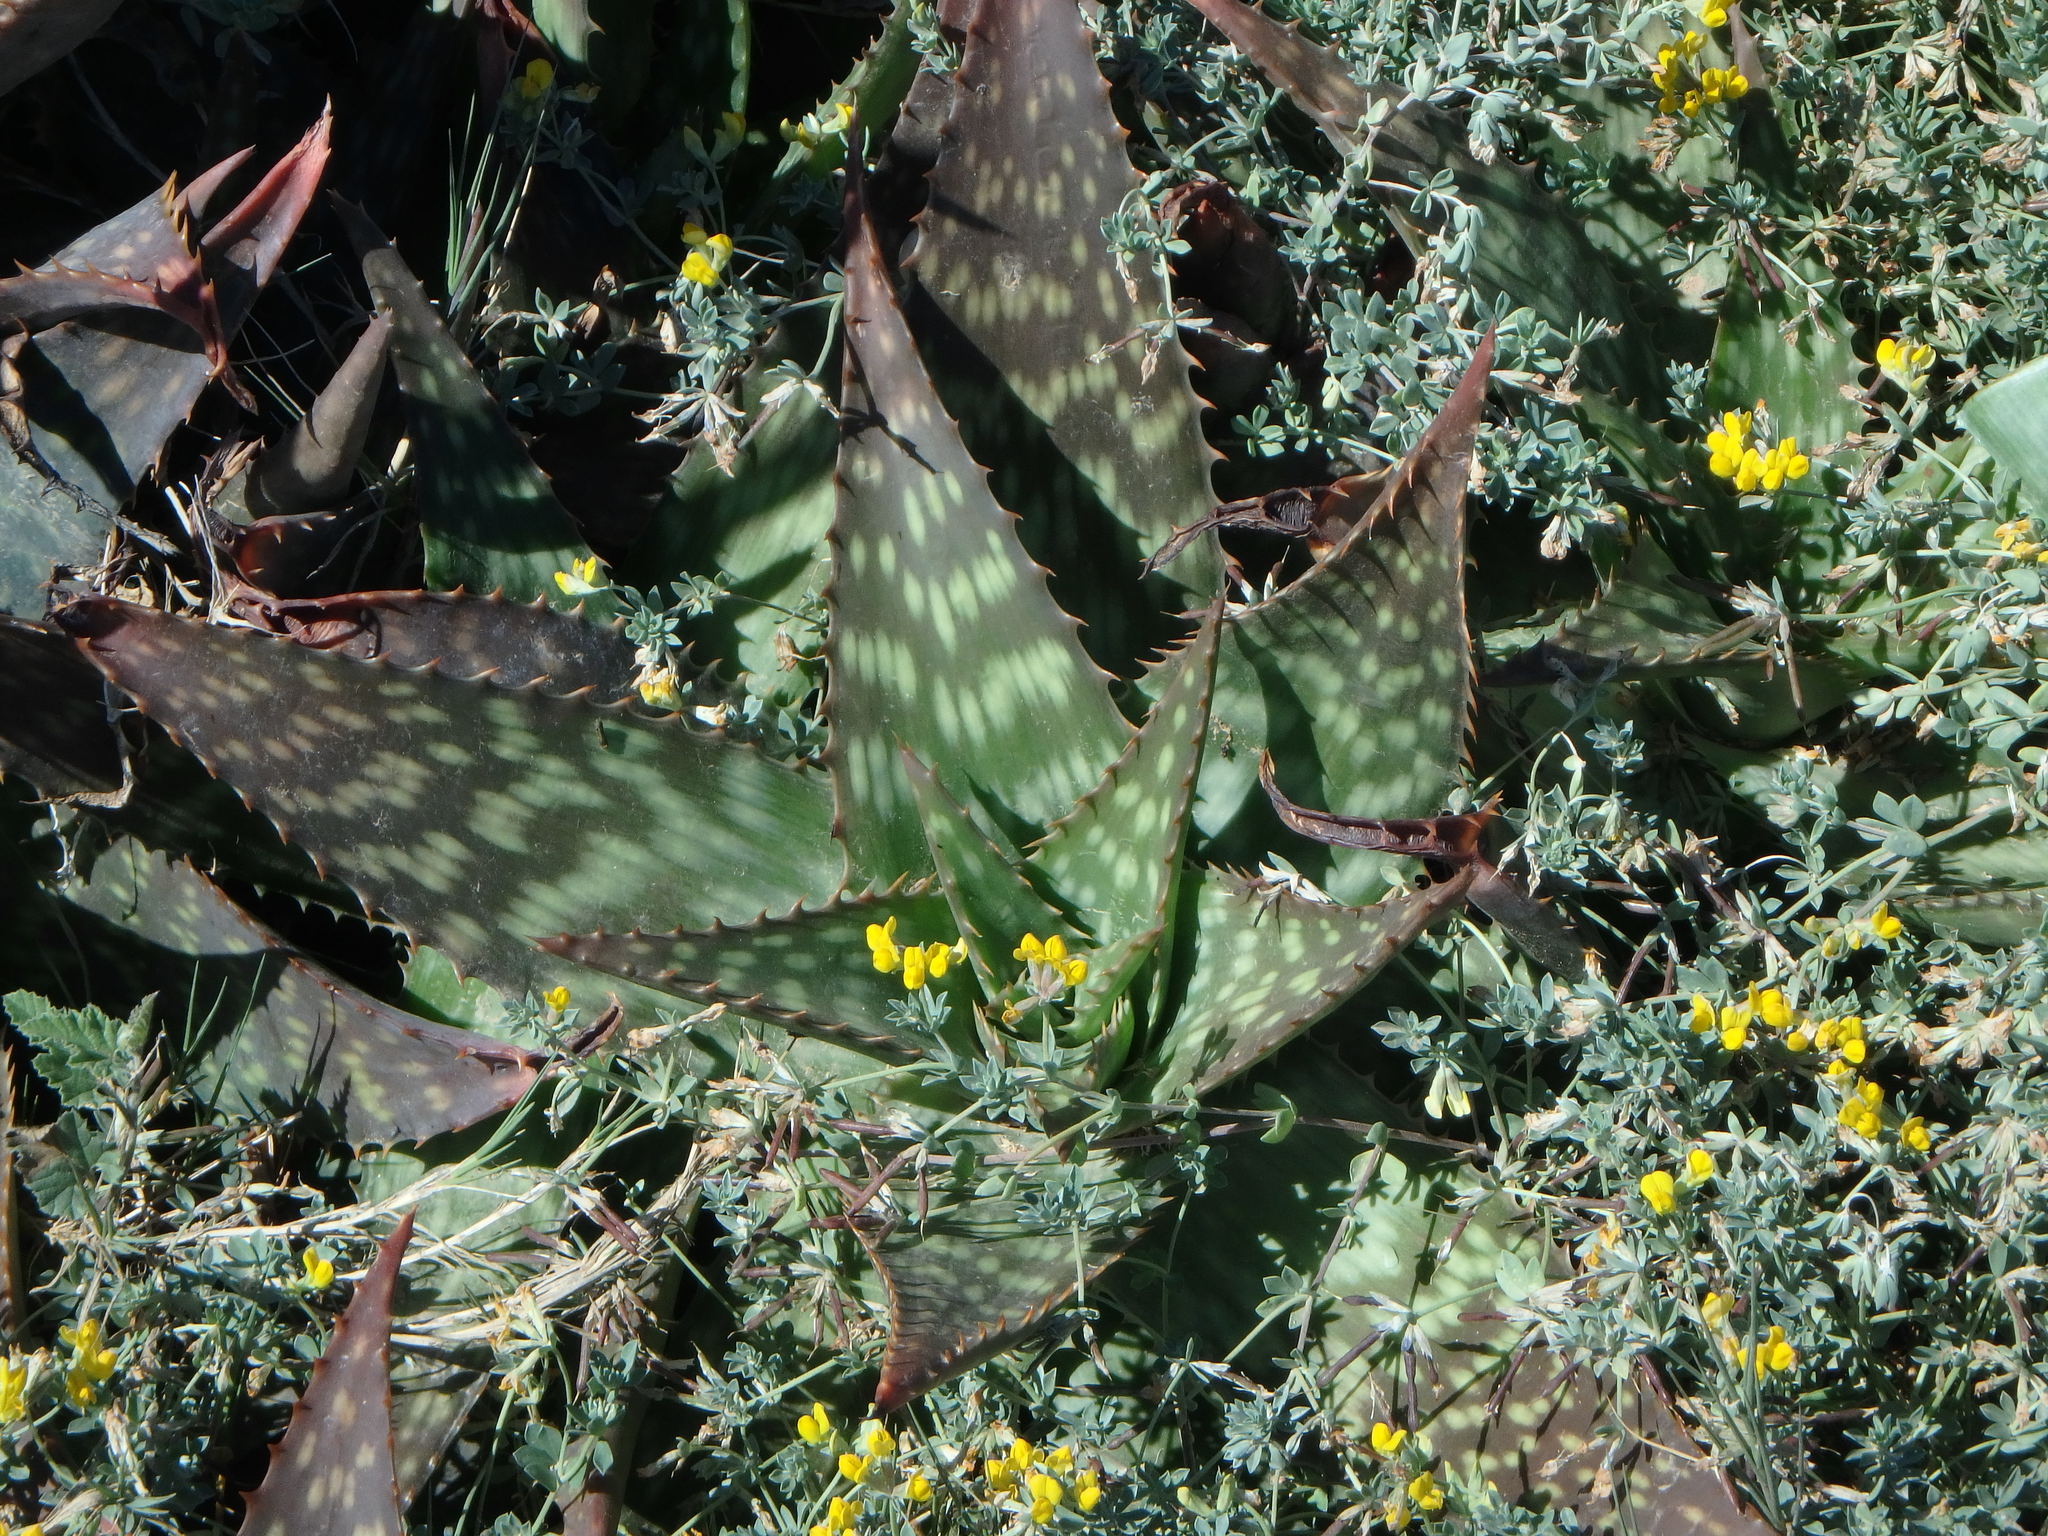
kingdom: Plantae
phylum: Tracheophyta
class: Liliopsida
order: Asparagales
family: Asphodelaceae
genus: Aloe
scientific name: Aloe maculata
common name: Broadleaf aloe
